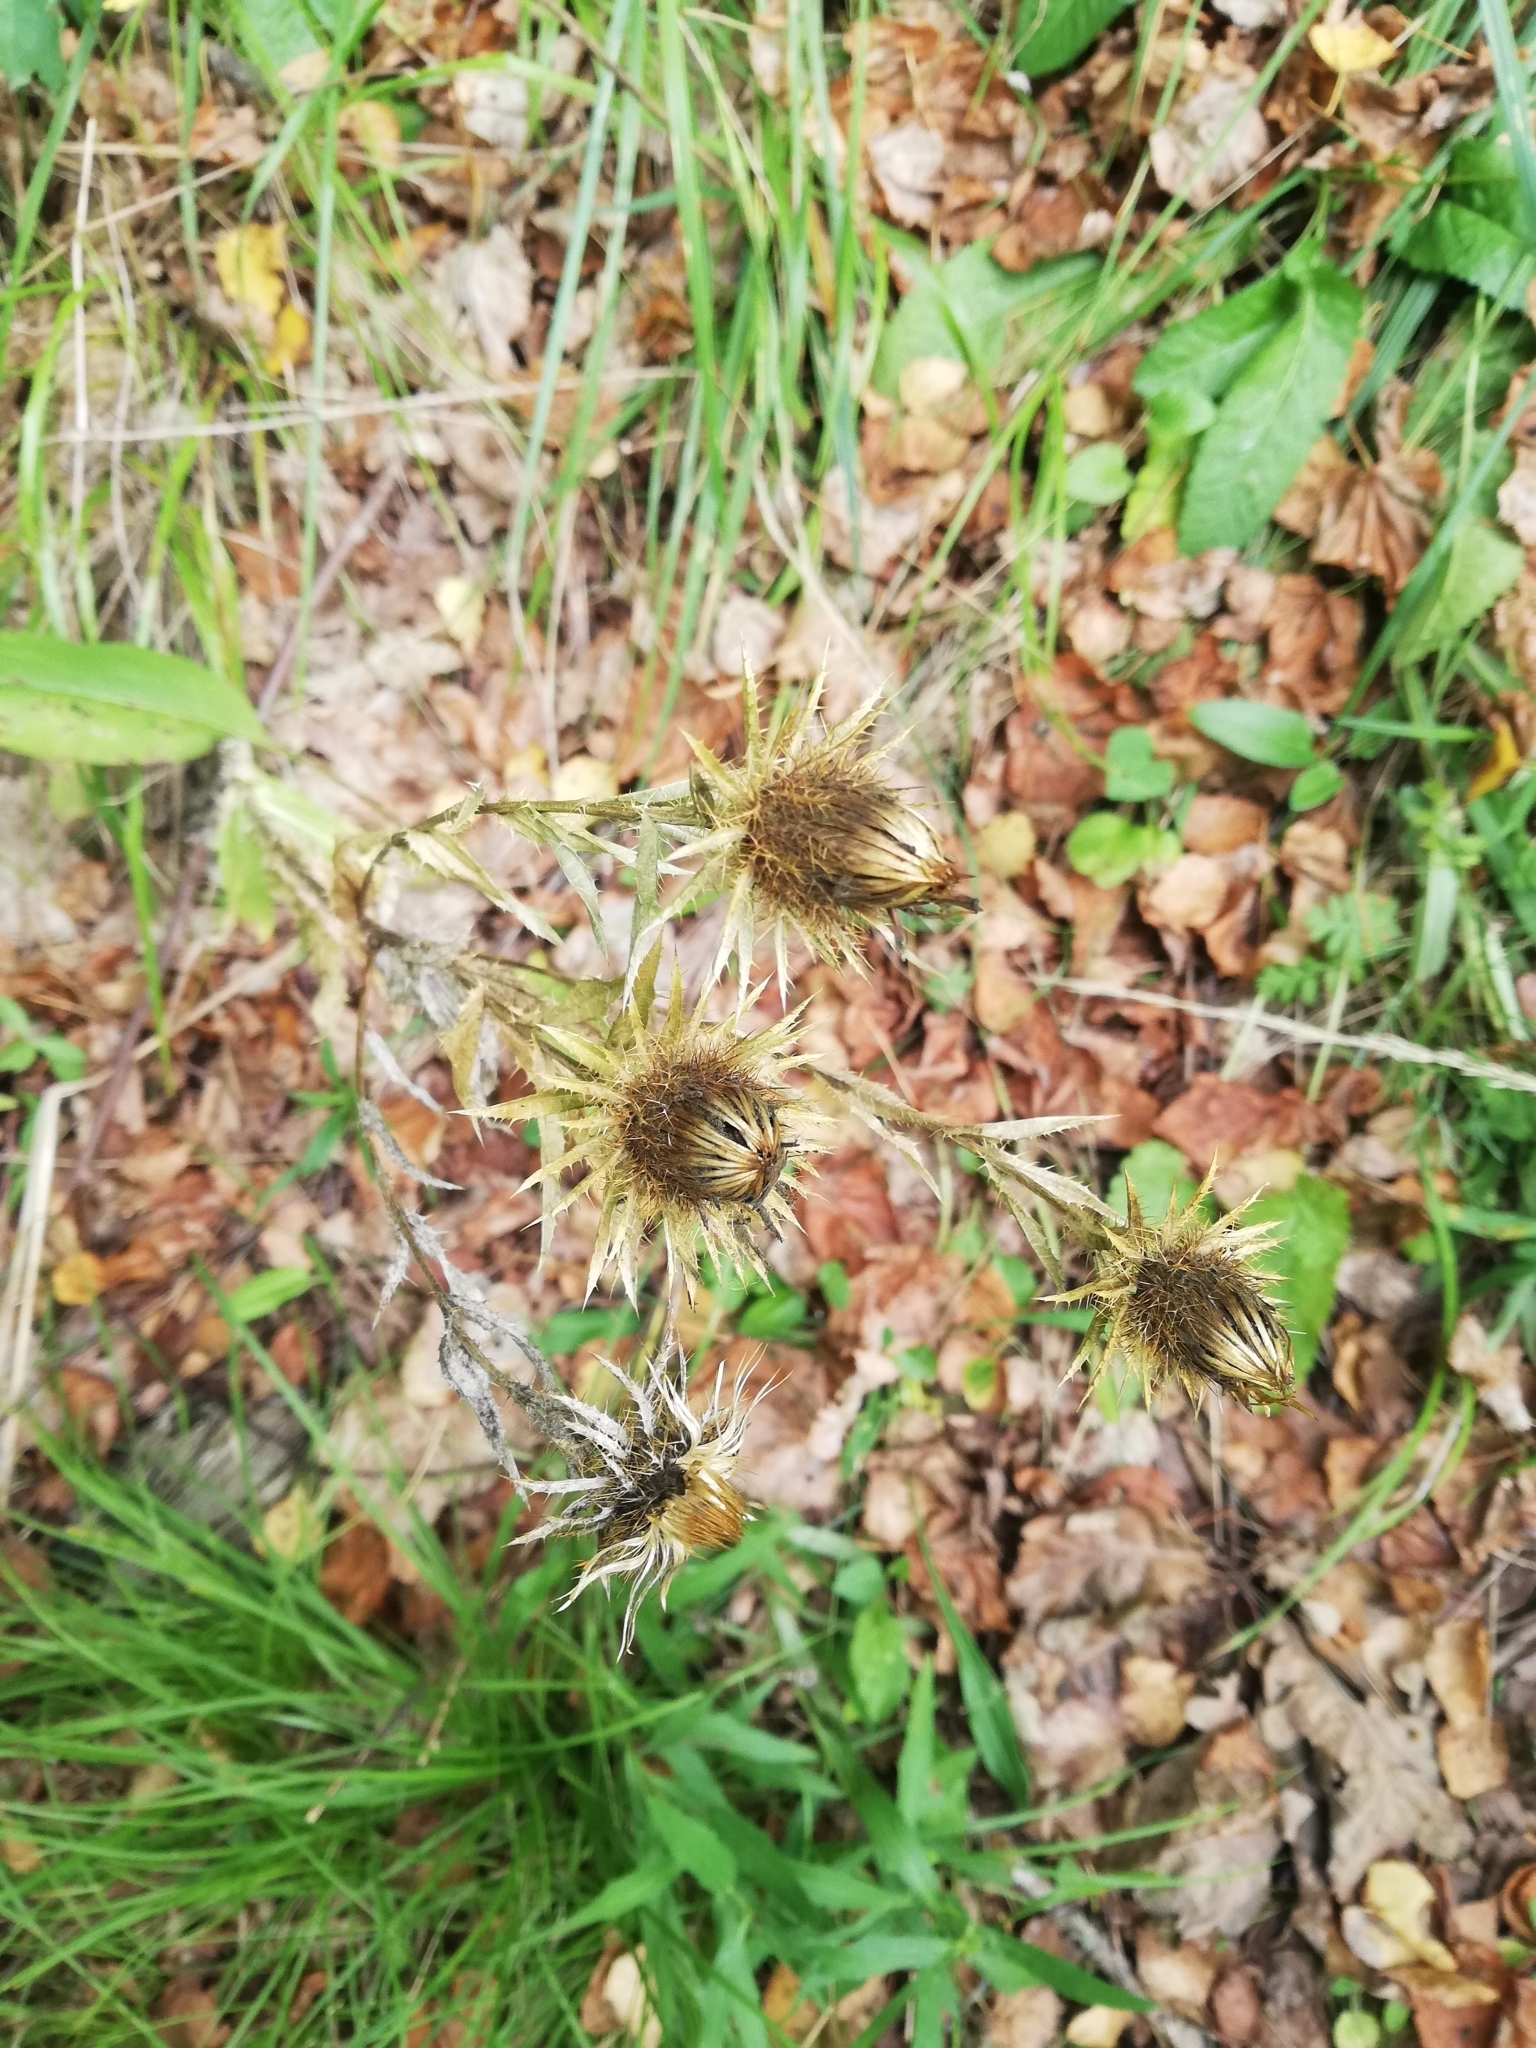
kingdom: Plantae
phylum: Tracheophyta
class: Magnoliopsida
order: Asterales
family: Asteraceae
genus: Carlina
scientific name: Carlina biebersteinii
